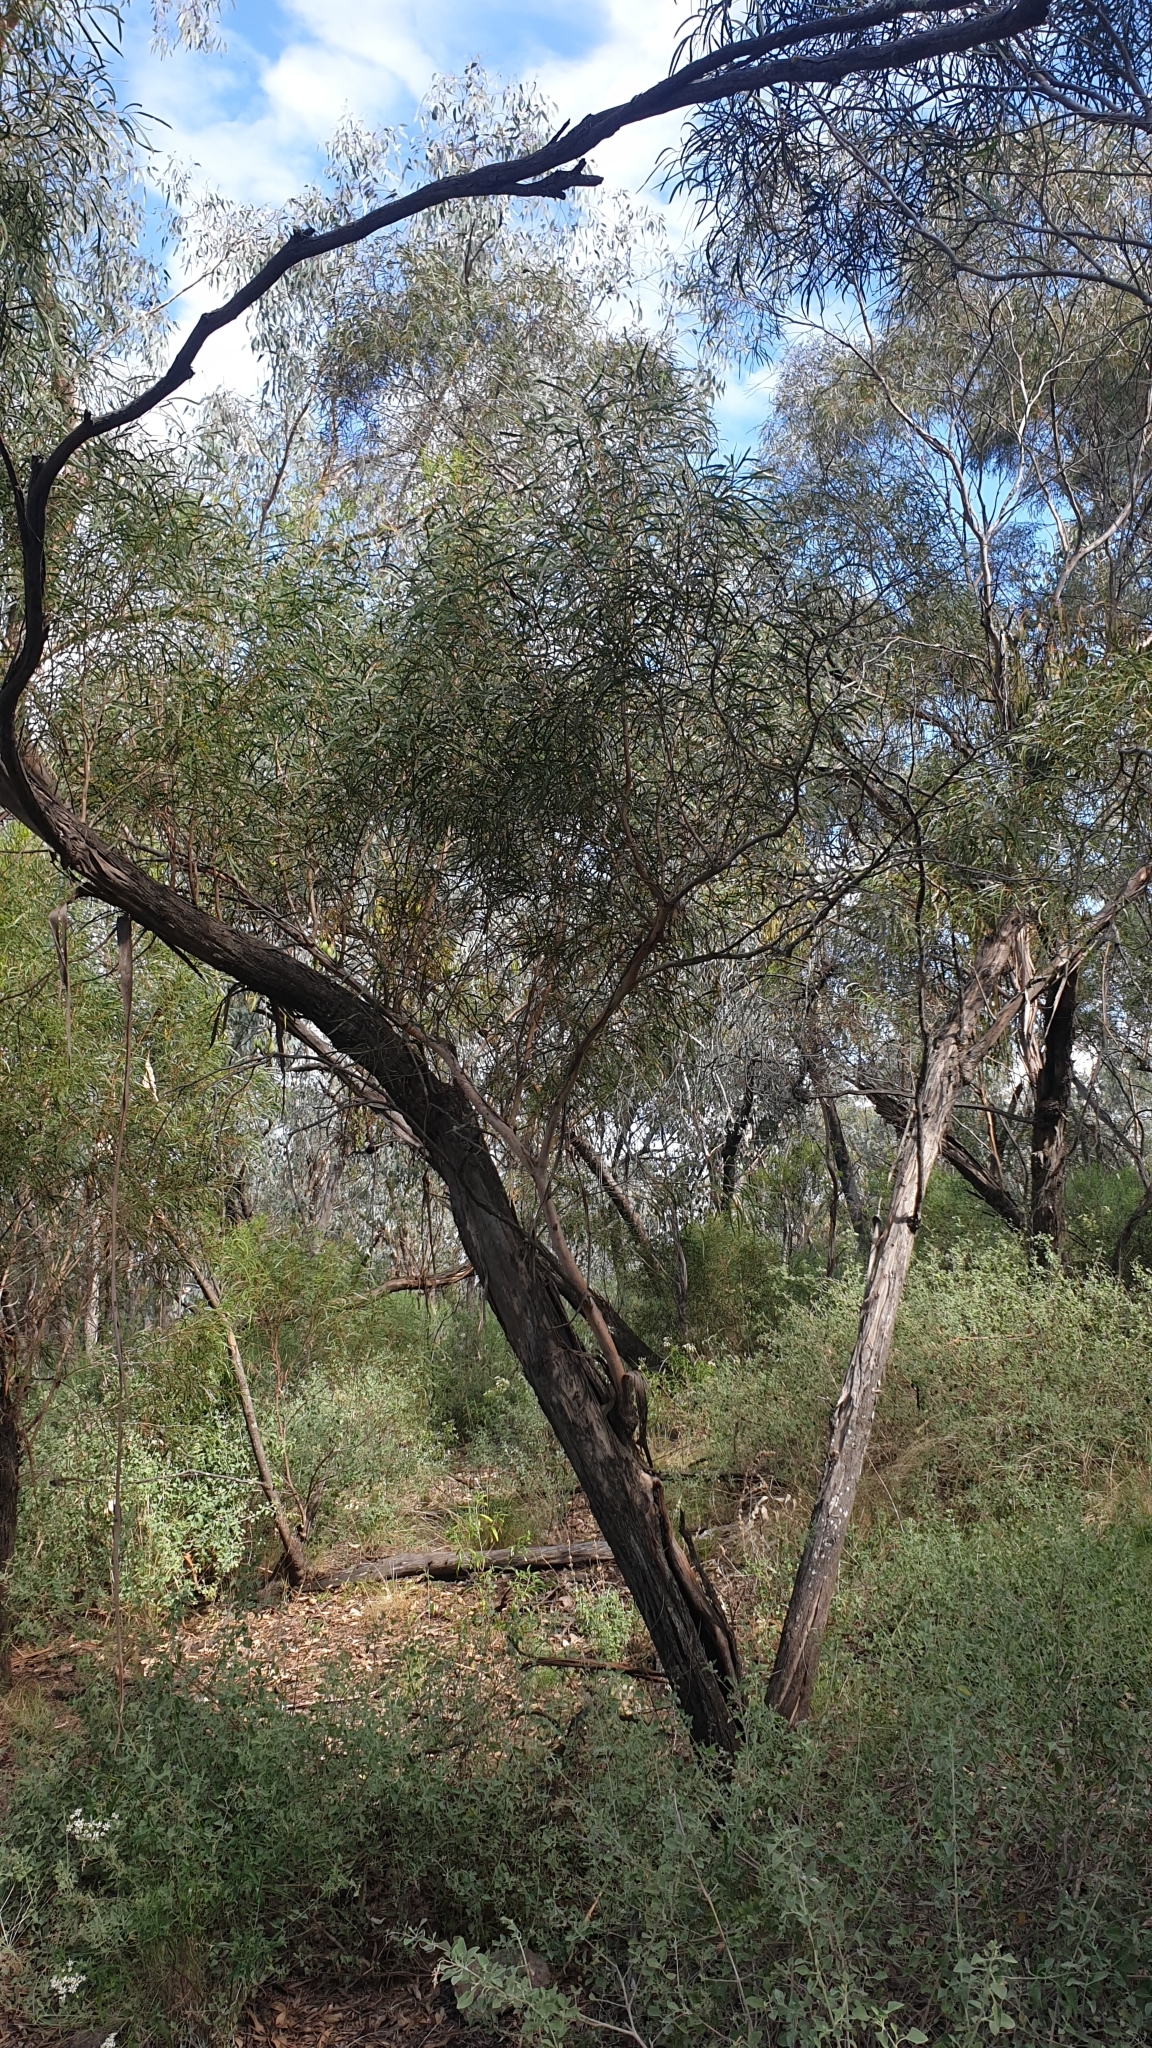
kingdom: Plantae
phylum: Tracheophyta
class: Magnoliopsida
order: Myrtales
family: Myrtaceae
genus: Eucalyptus
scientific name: Eucalyptus viridis
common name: Green mallee
